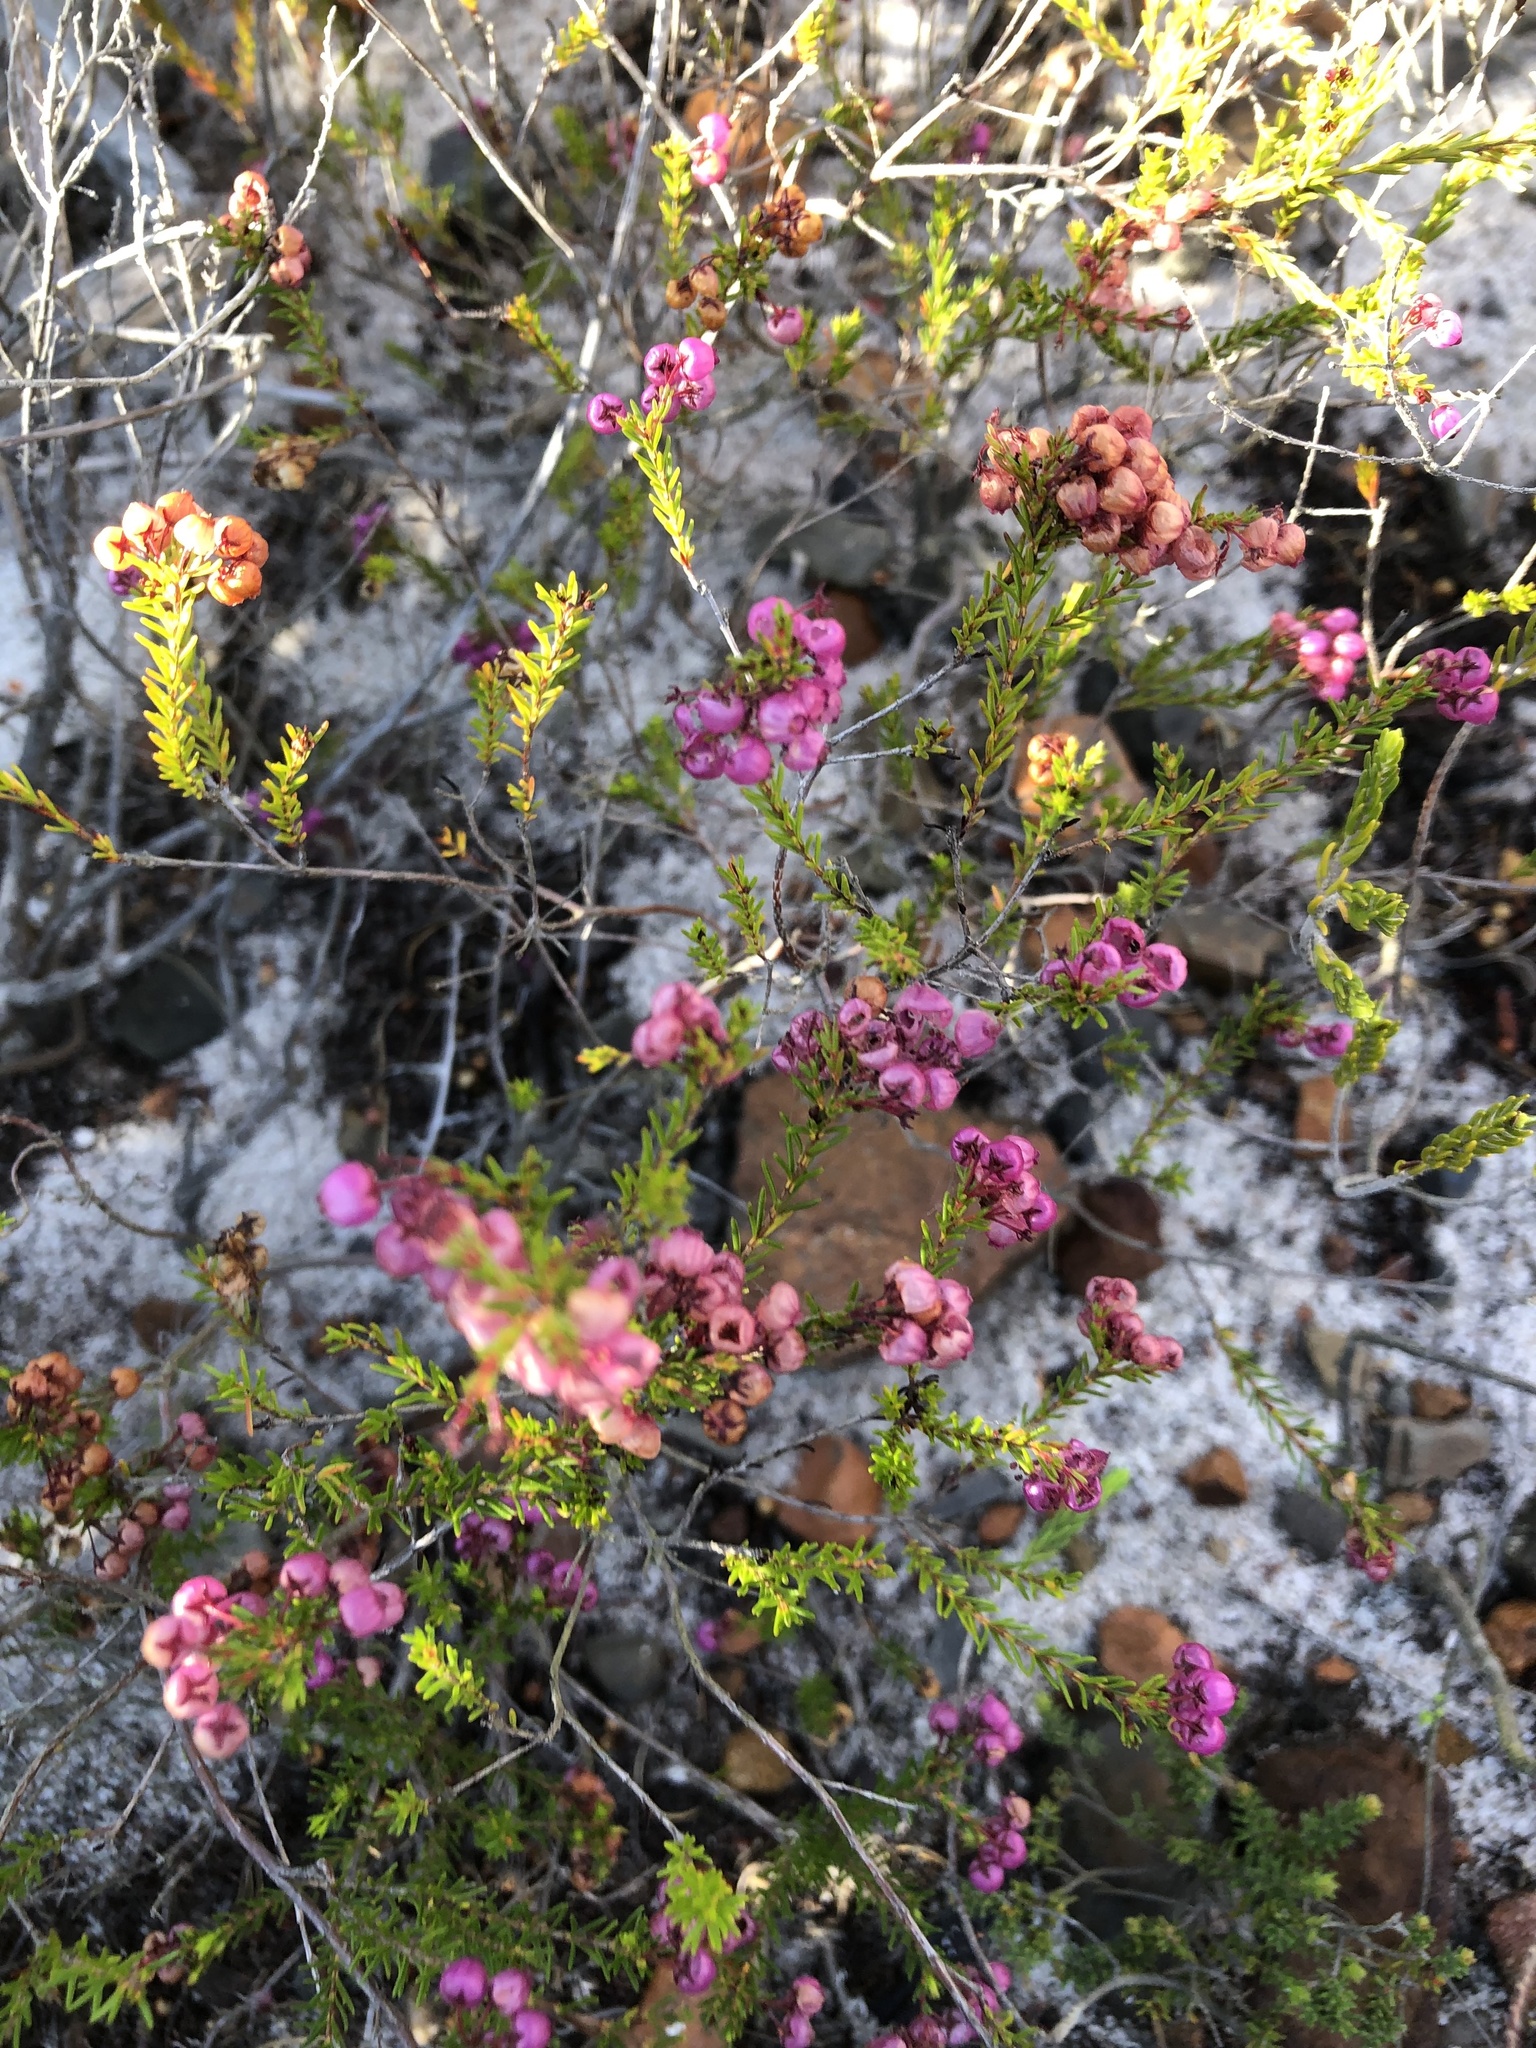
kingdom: Plantae
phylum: Tracheophyta
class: Magnoliopsida
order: Ericales
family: Ericaceae
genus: Erica
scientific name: Erica multumbellifera
